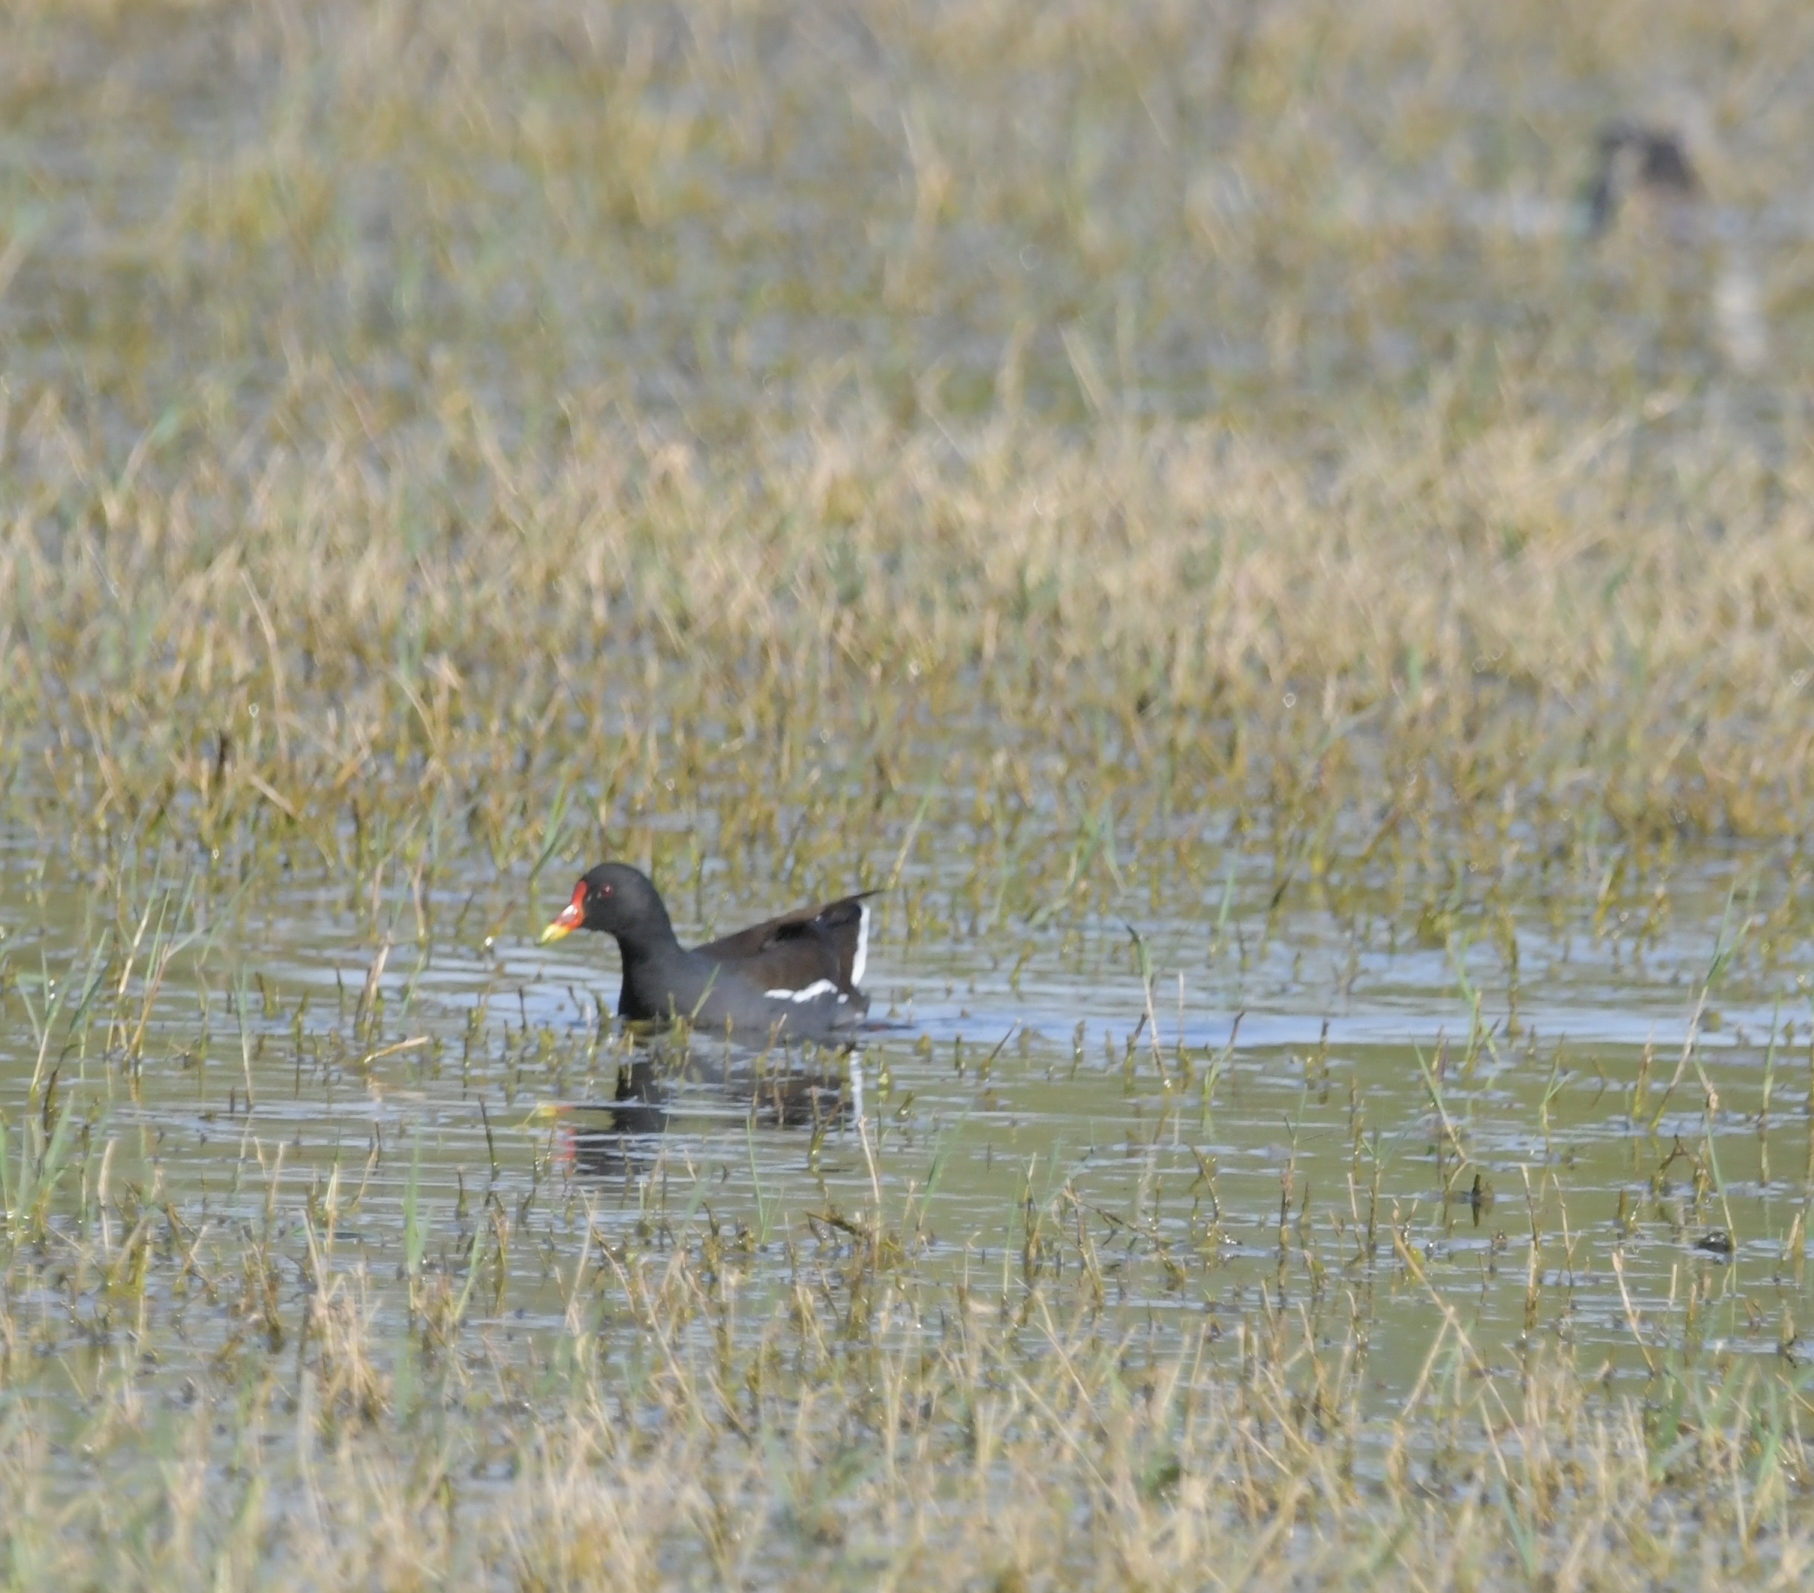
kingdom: Animalia
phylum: Chordata
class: Aves
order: Gruiformes
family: Rallidae
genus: Gallinula
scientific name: Gallinula chloropus
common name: Common moorhen
